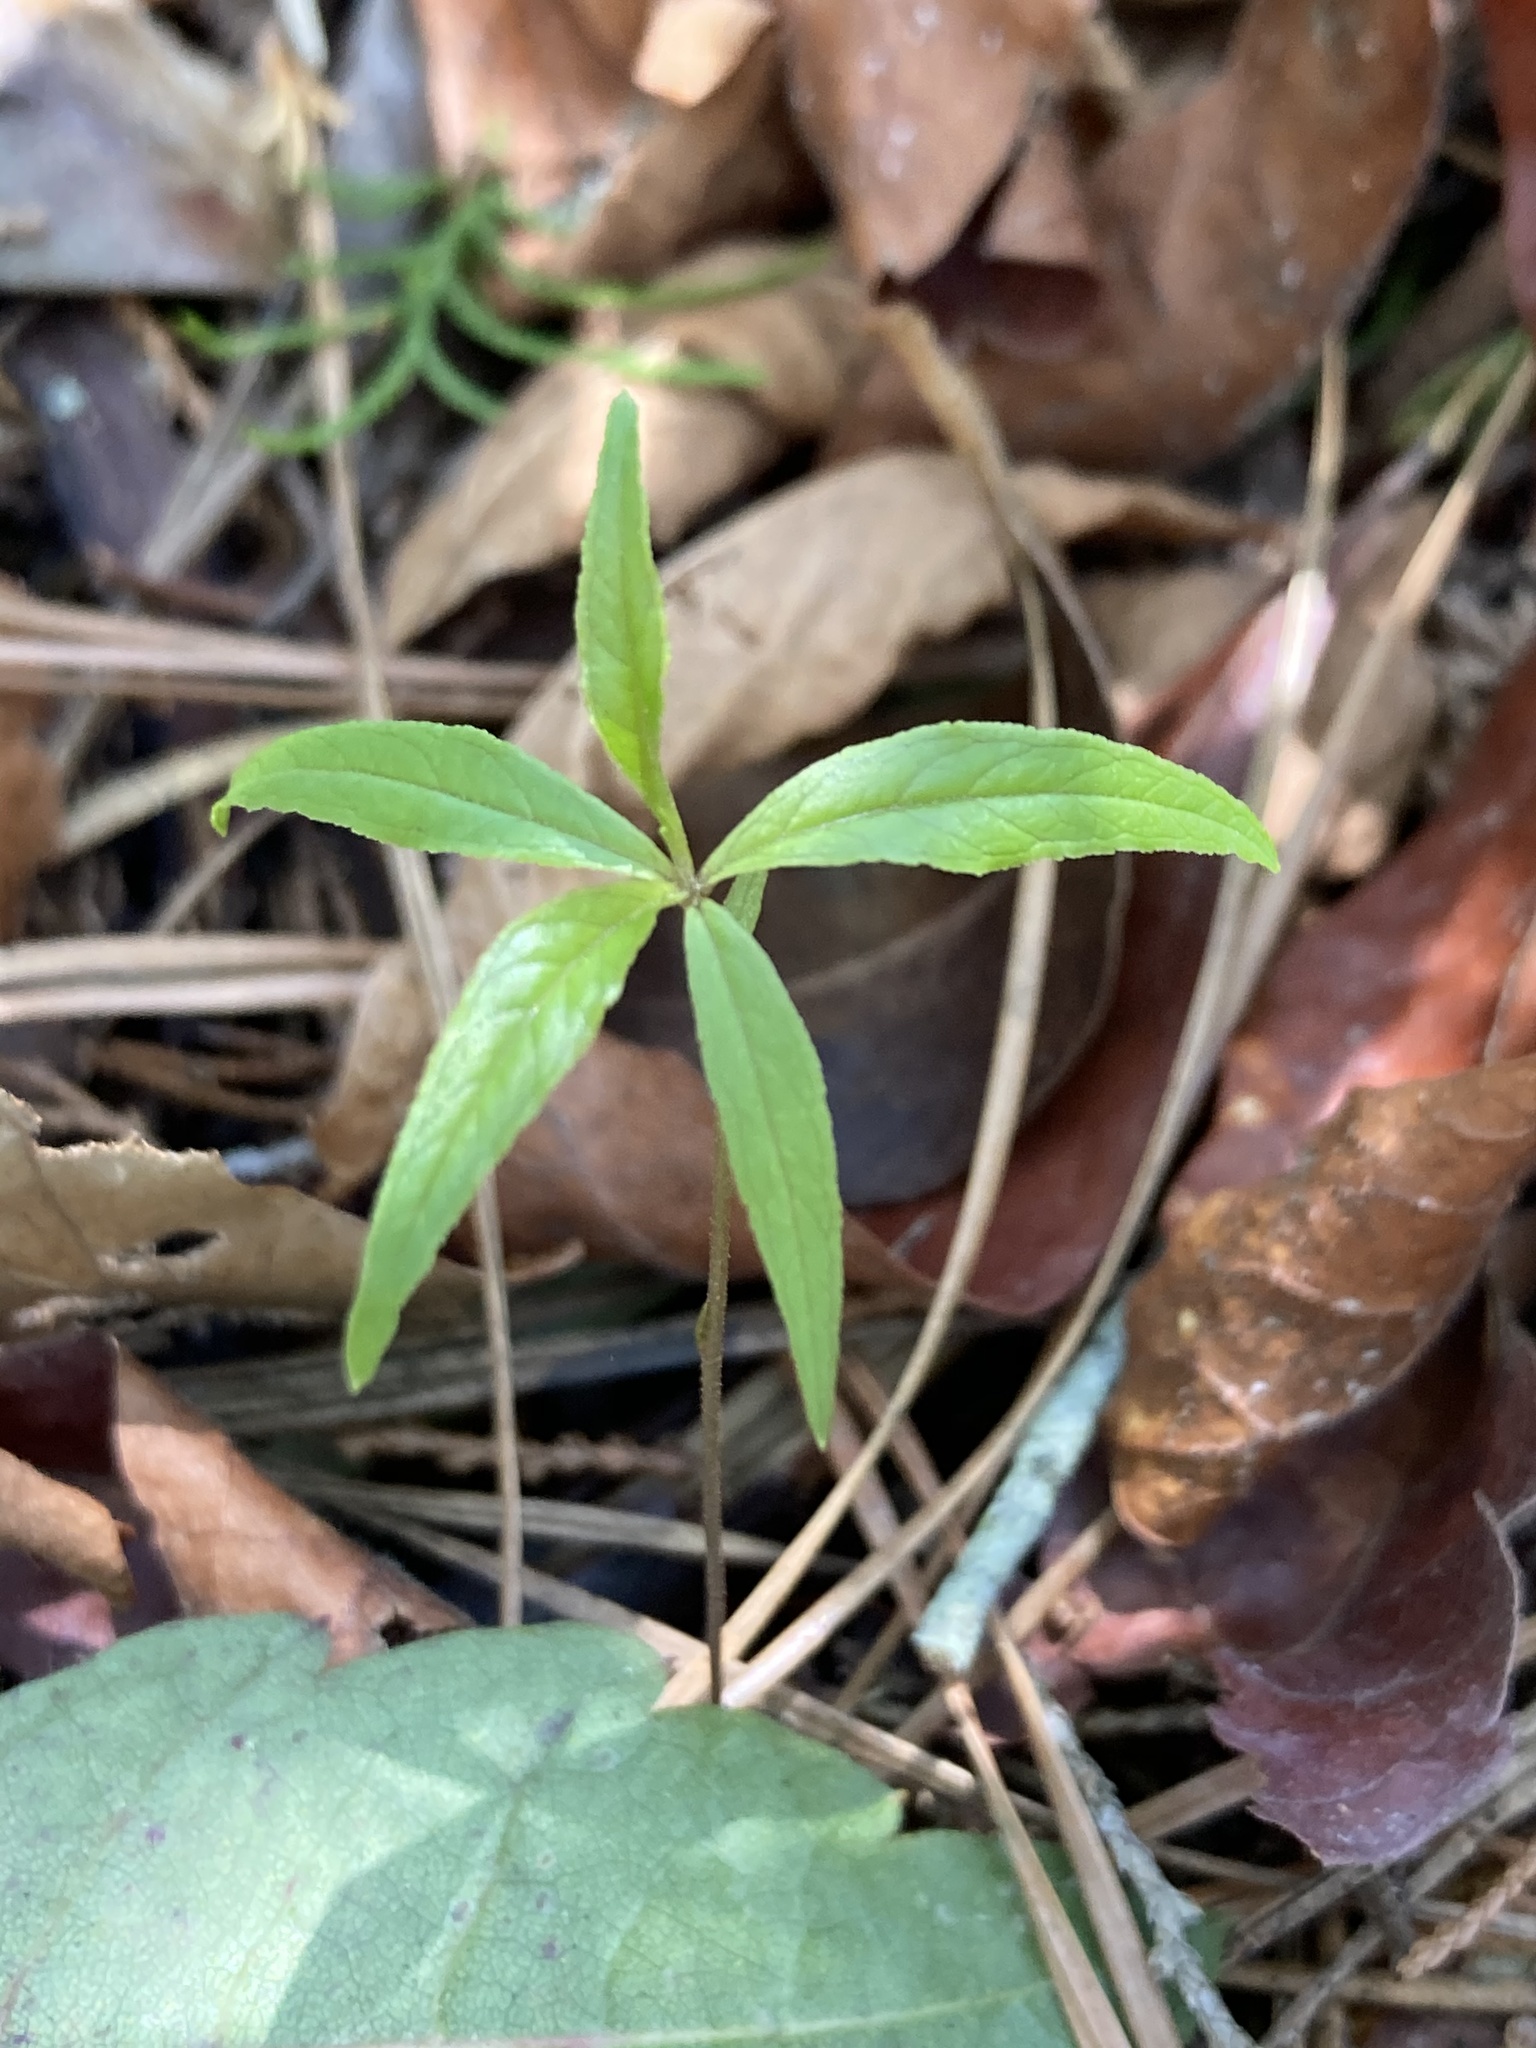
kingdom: Plantae
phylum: Tracheophyta
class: Magnoliopsida
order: Ericales
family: Primulaceae
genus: Lysimachia
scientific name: Lysimachia borealis
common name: American starflower
